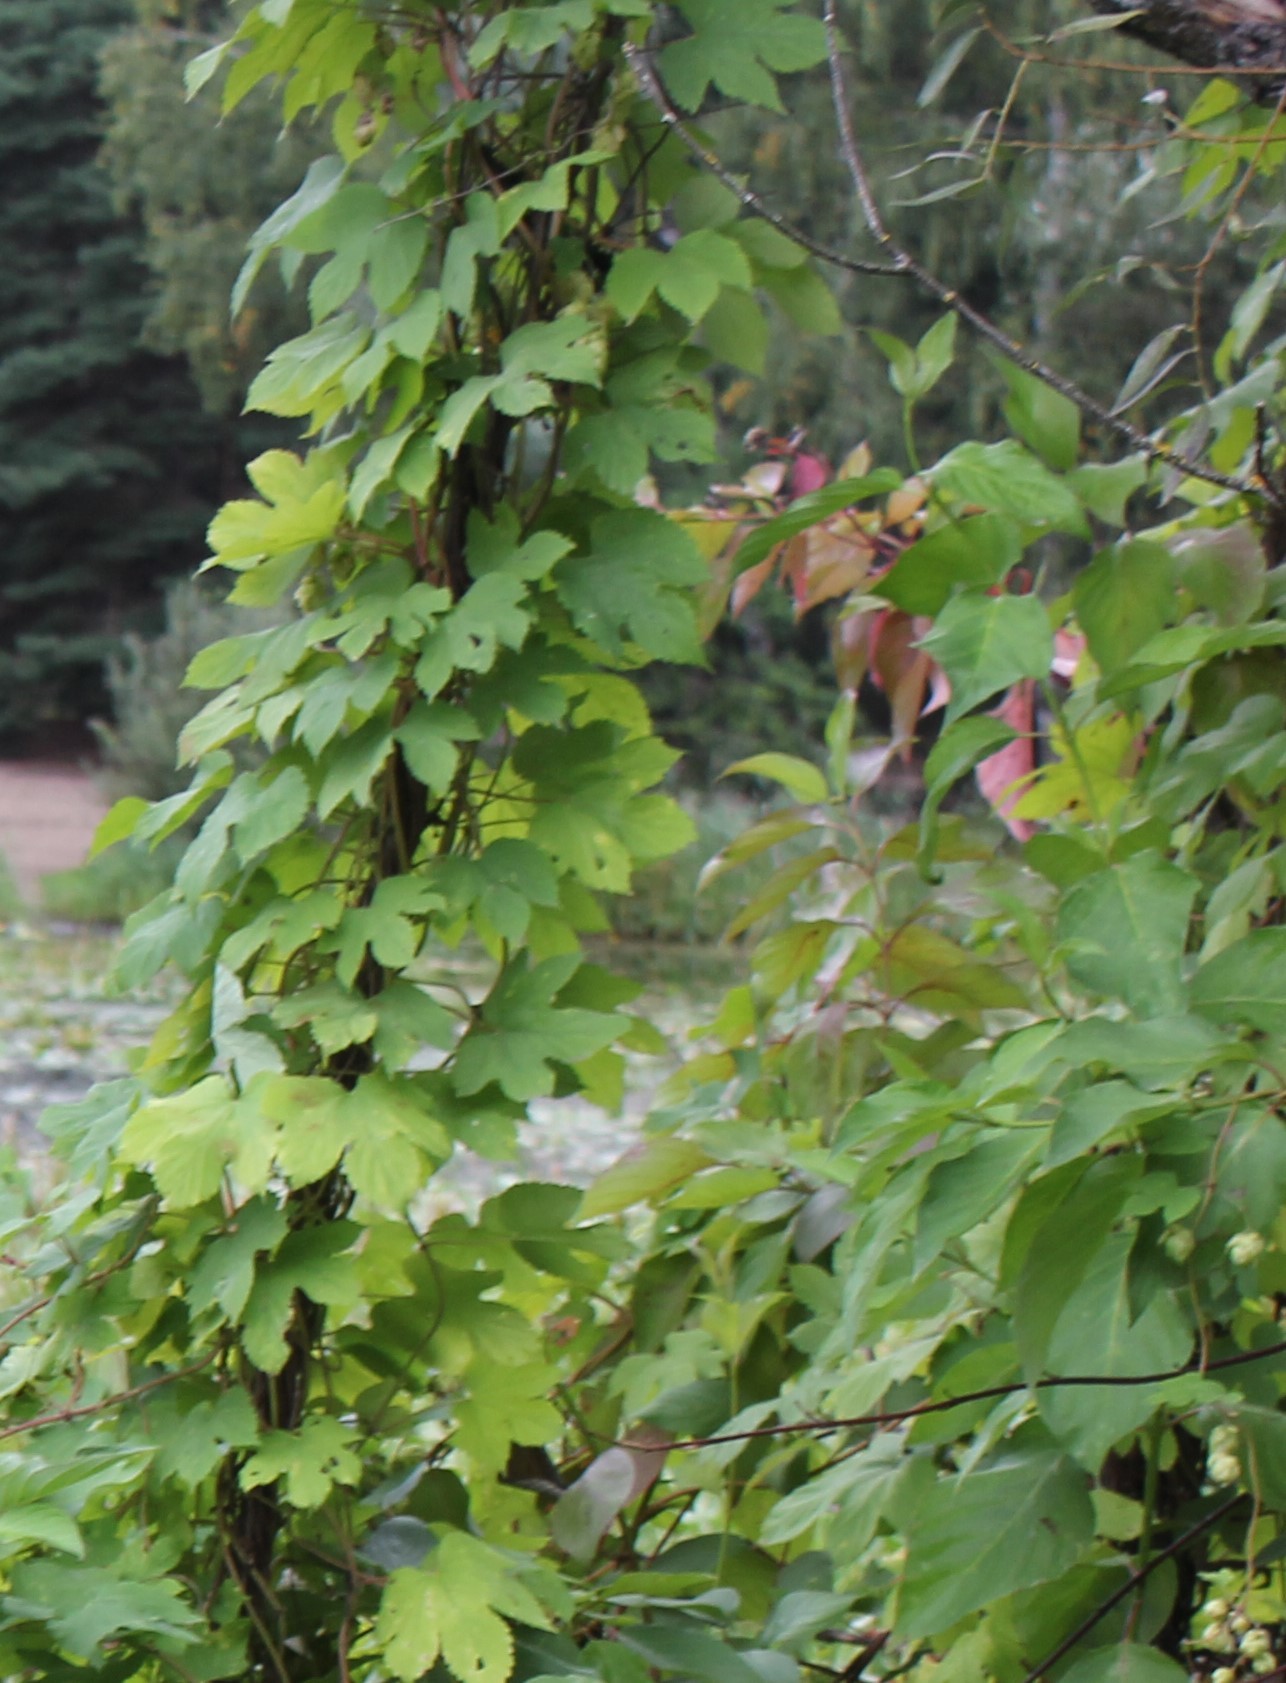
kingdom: Plantae
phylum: Tracheophyta
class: Magnoliopsida
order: Rosales
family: Cannabaceae
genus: Humulus
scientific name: Humulus lupulus
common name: Hop
